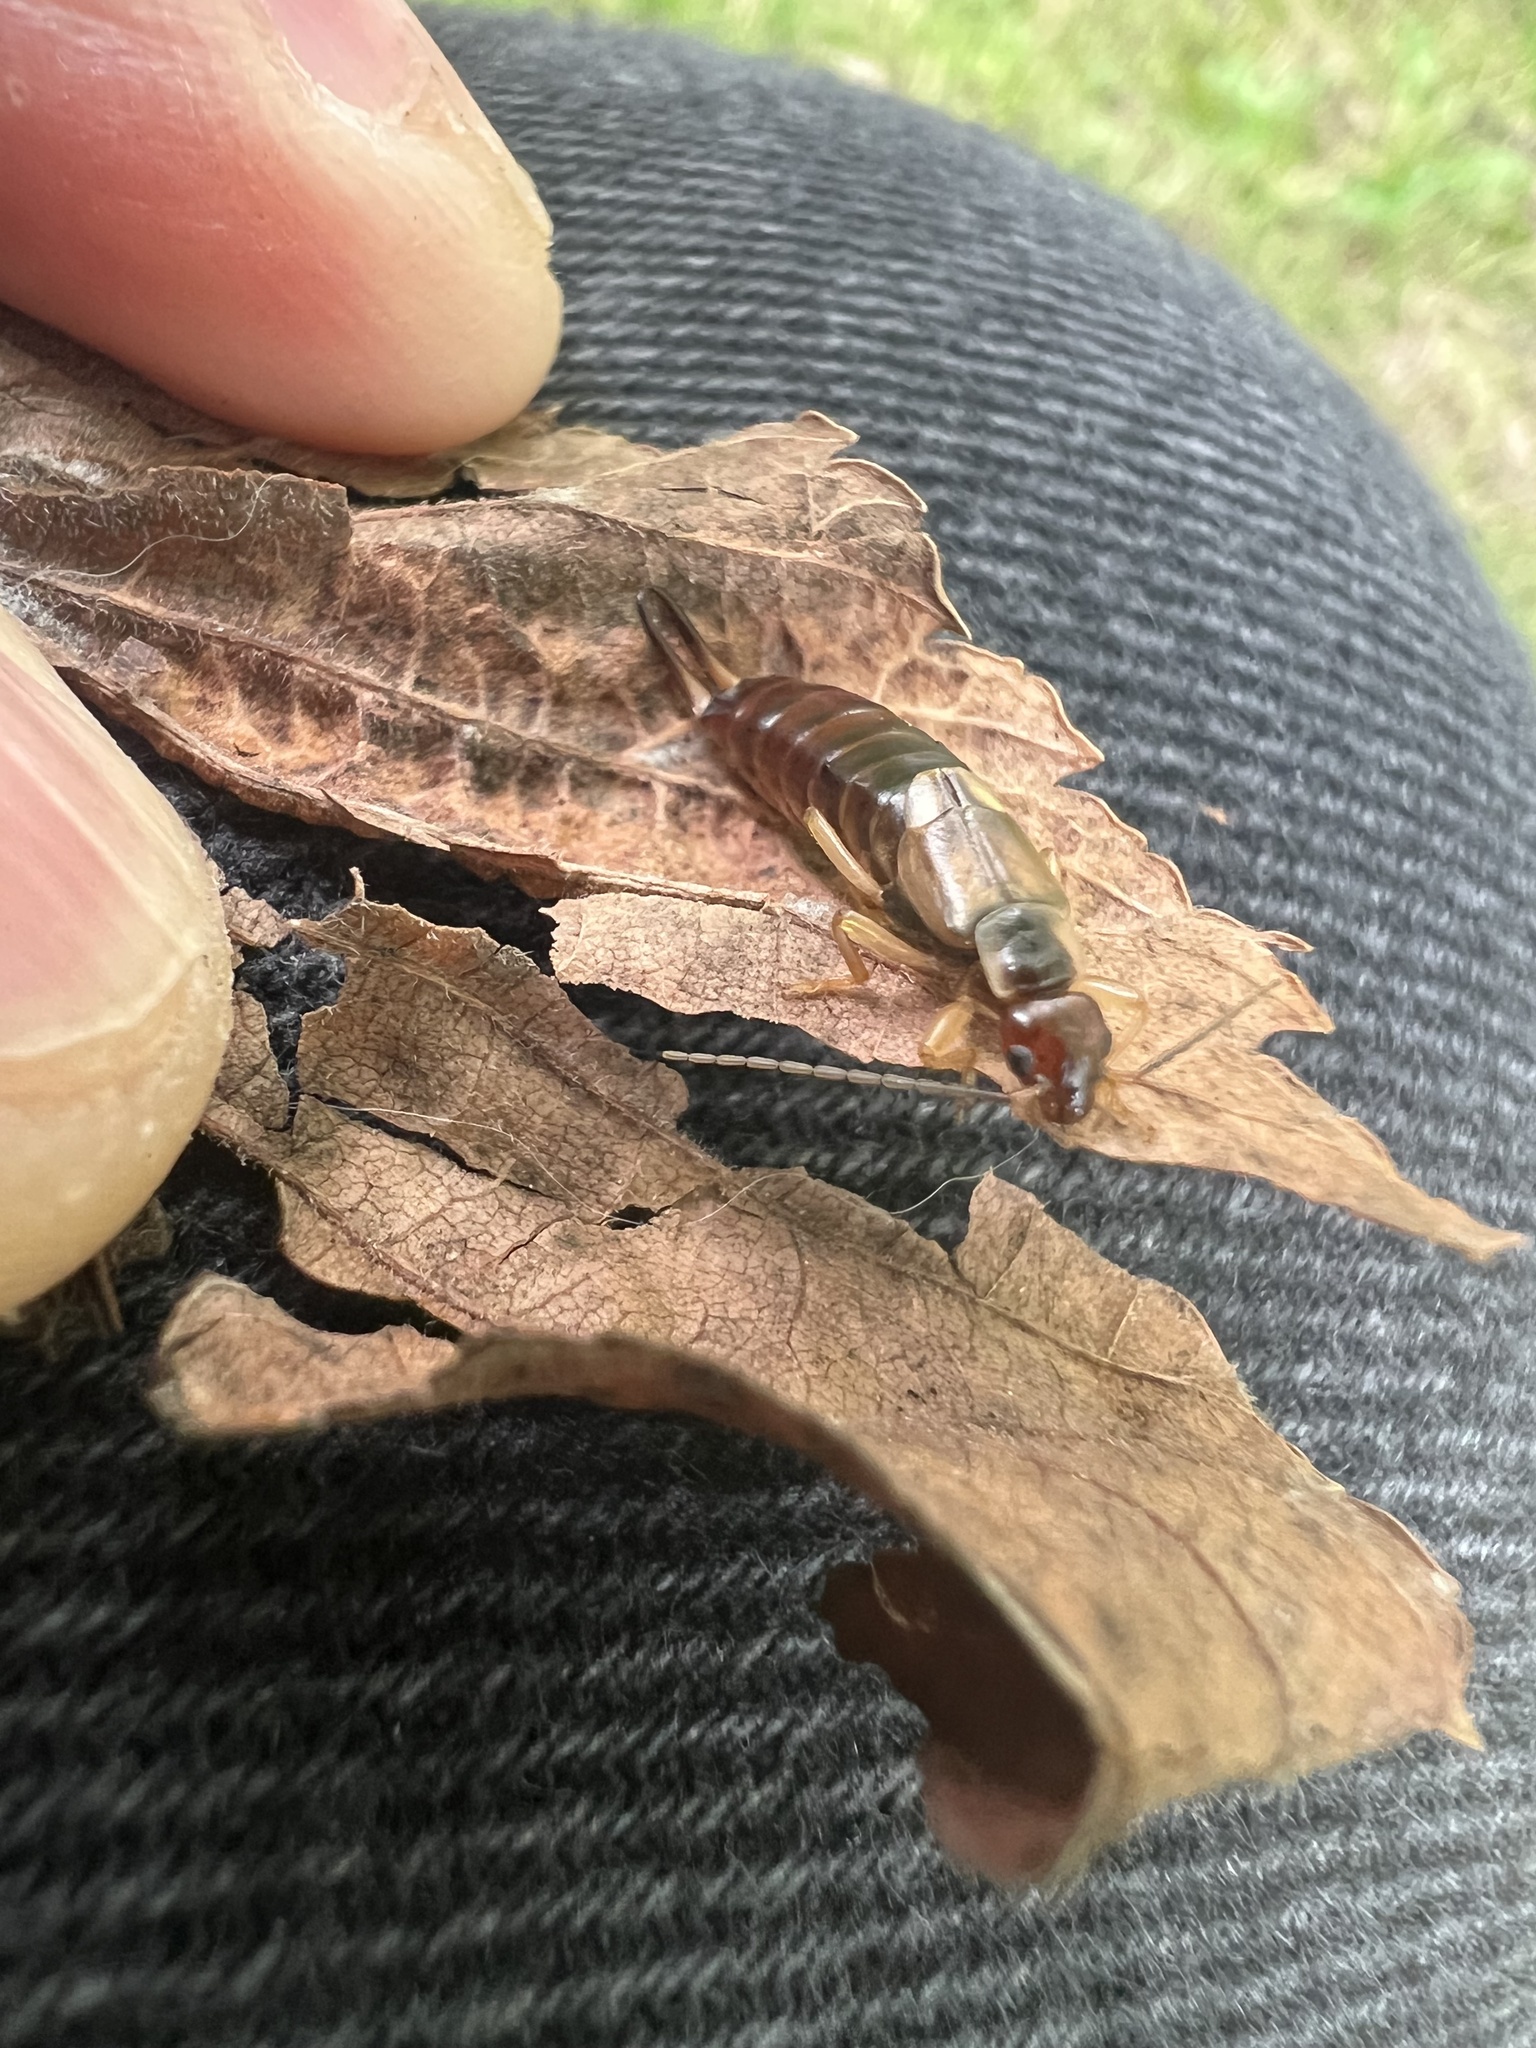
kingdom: Animalia
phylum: Arthropoda
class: Insecta
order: Dermaptera
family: Forficulidae
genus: Forficula
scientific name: Forficula dentata
